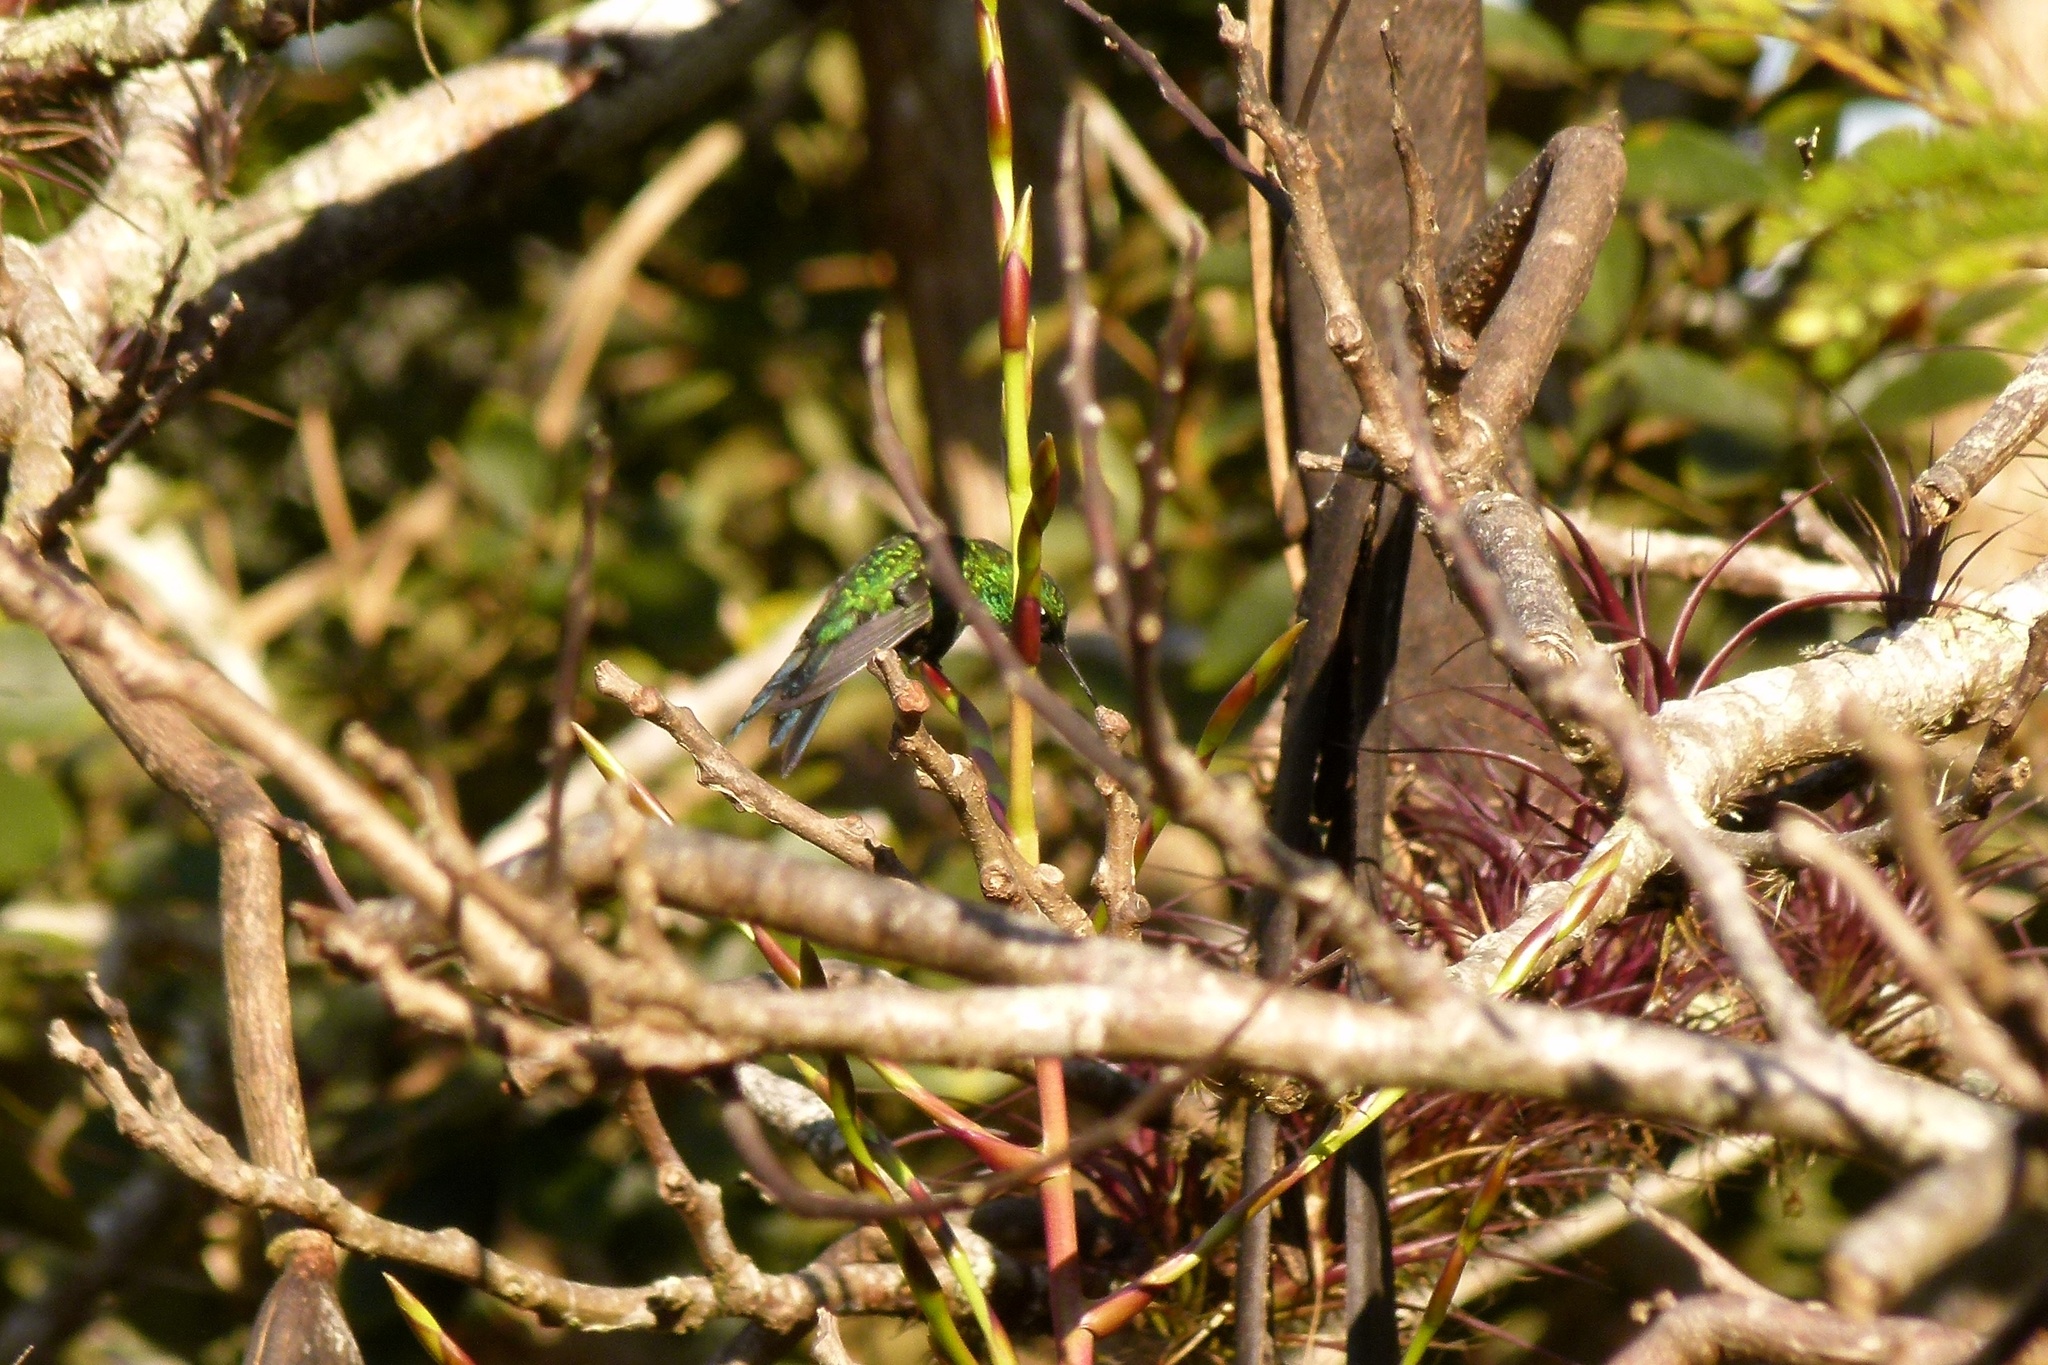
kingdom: Animalia
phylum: Chordata
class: Aves
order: Apodiformes
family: Trochilidae
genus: Riccordia
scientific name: Riccordia maugaeus
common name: Puerto rican emerald
